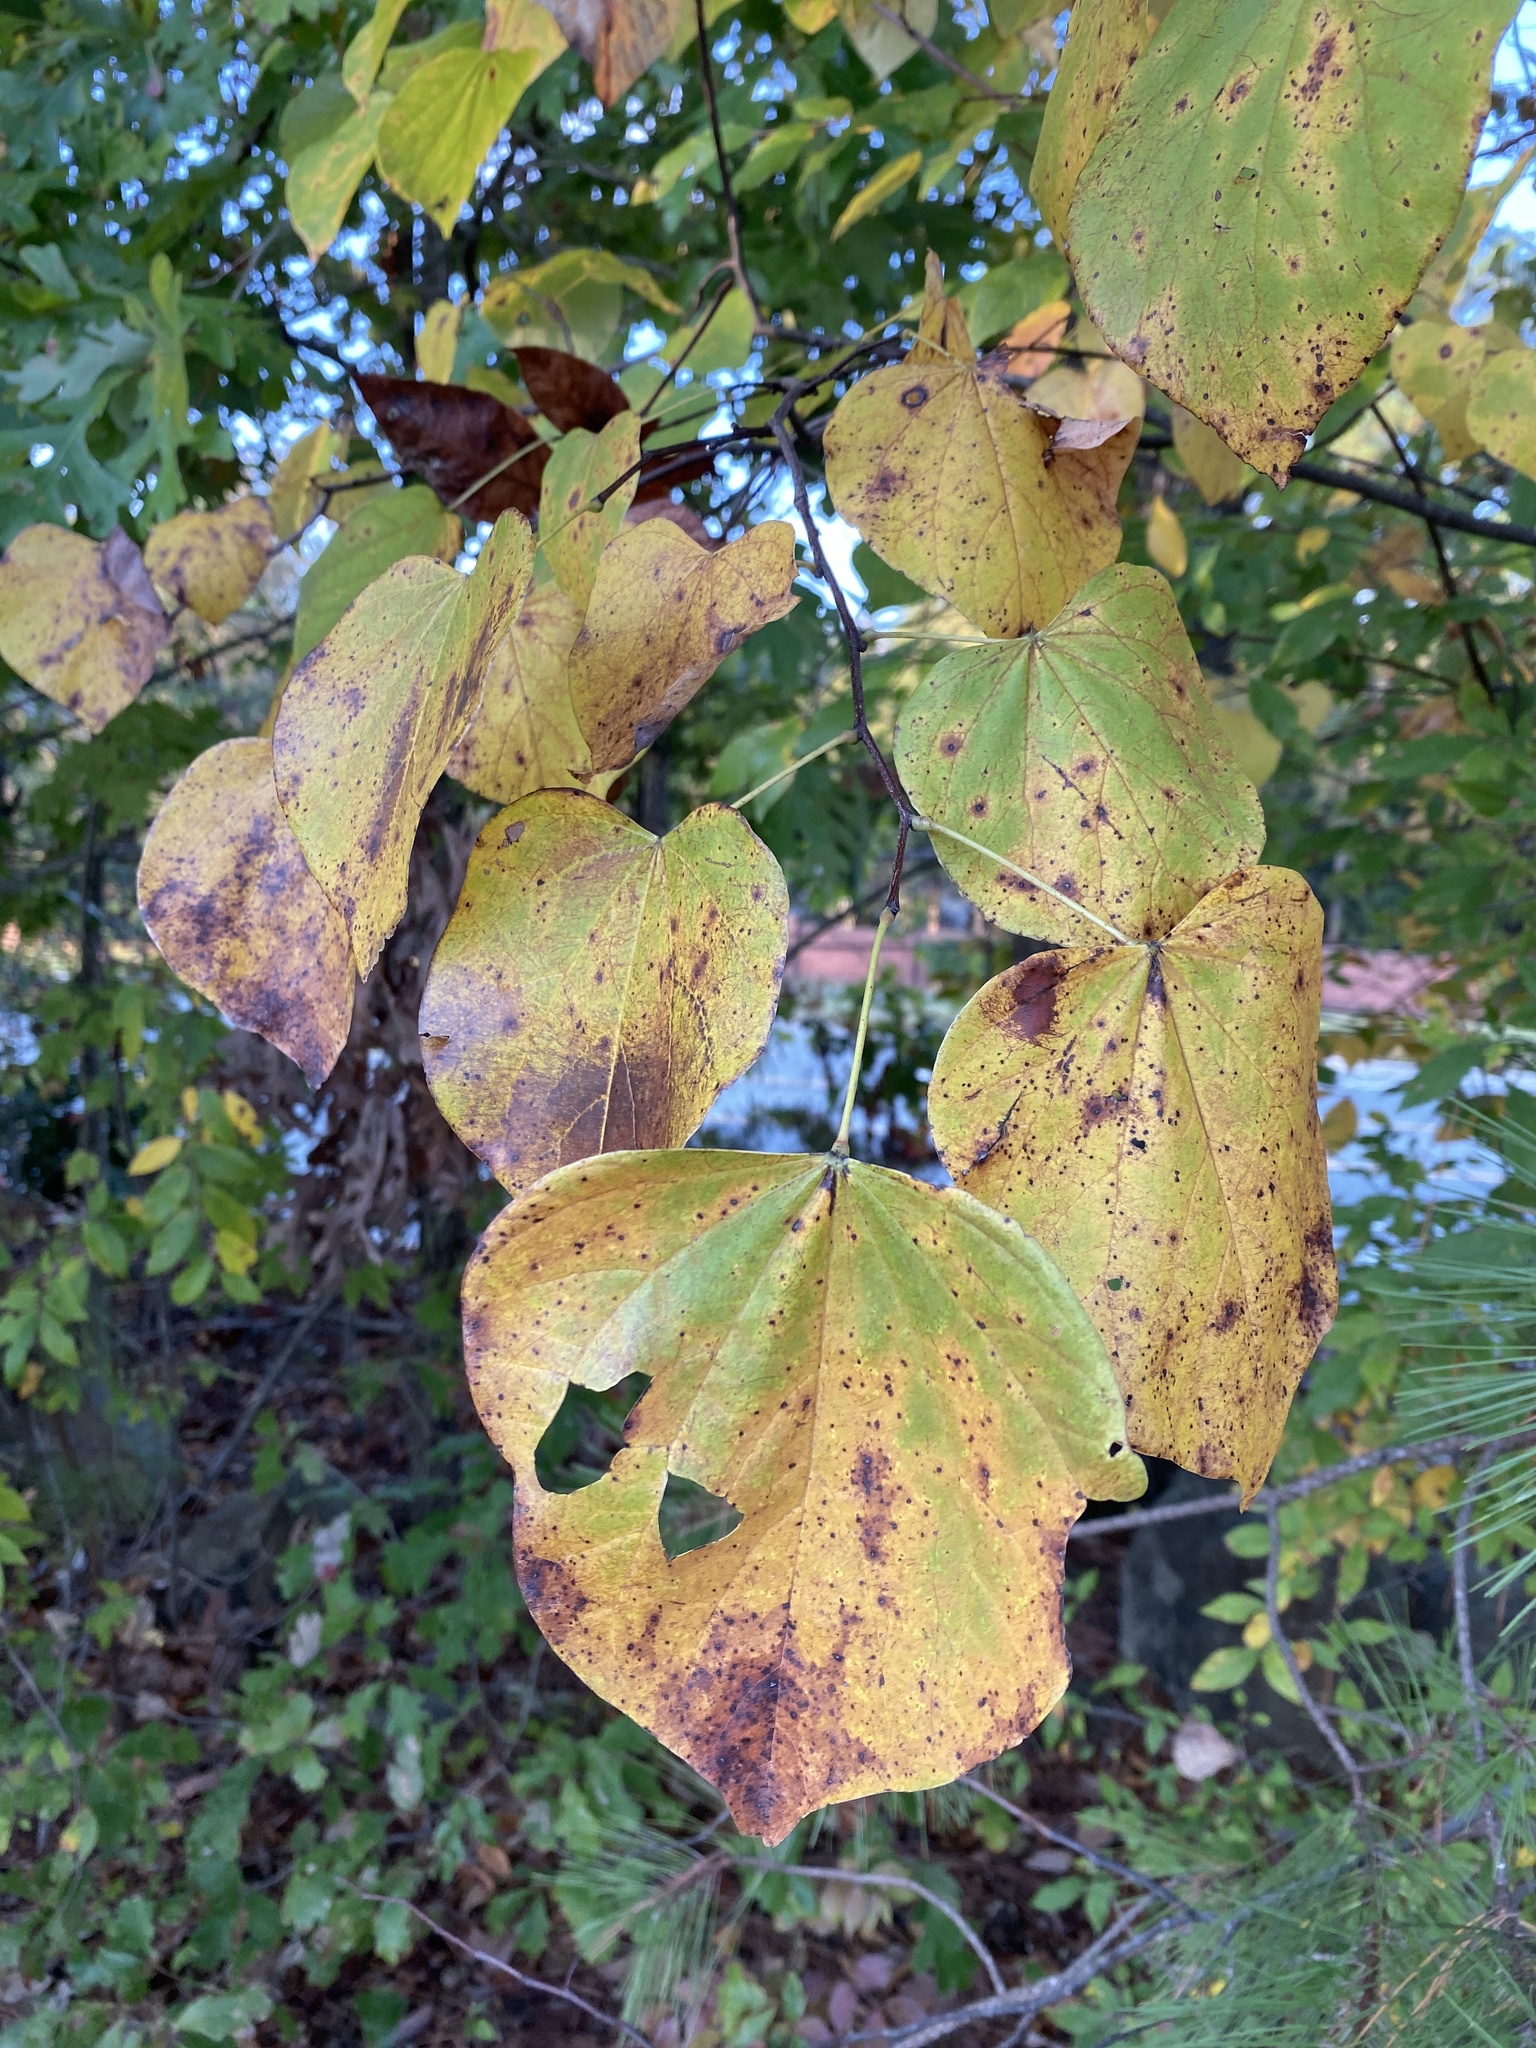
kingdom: Plantae
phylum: Tracheophyta
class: Magnoliopsida
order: Fabales
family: Fabaceae
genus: Cercis
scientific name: Cercis canadensis
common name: Eastern redbud
